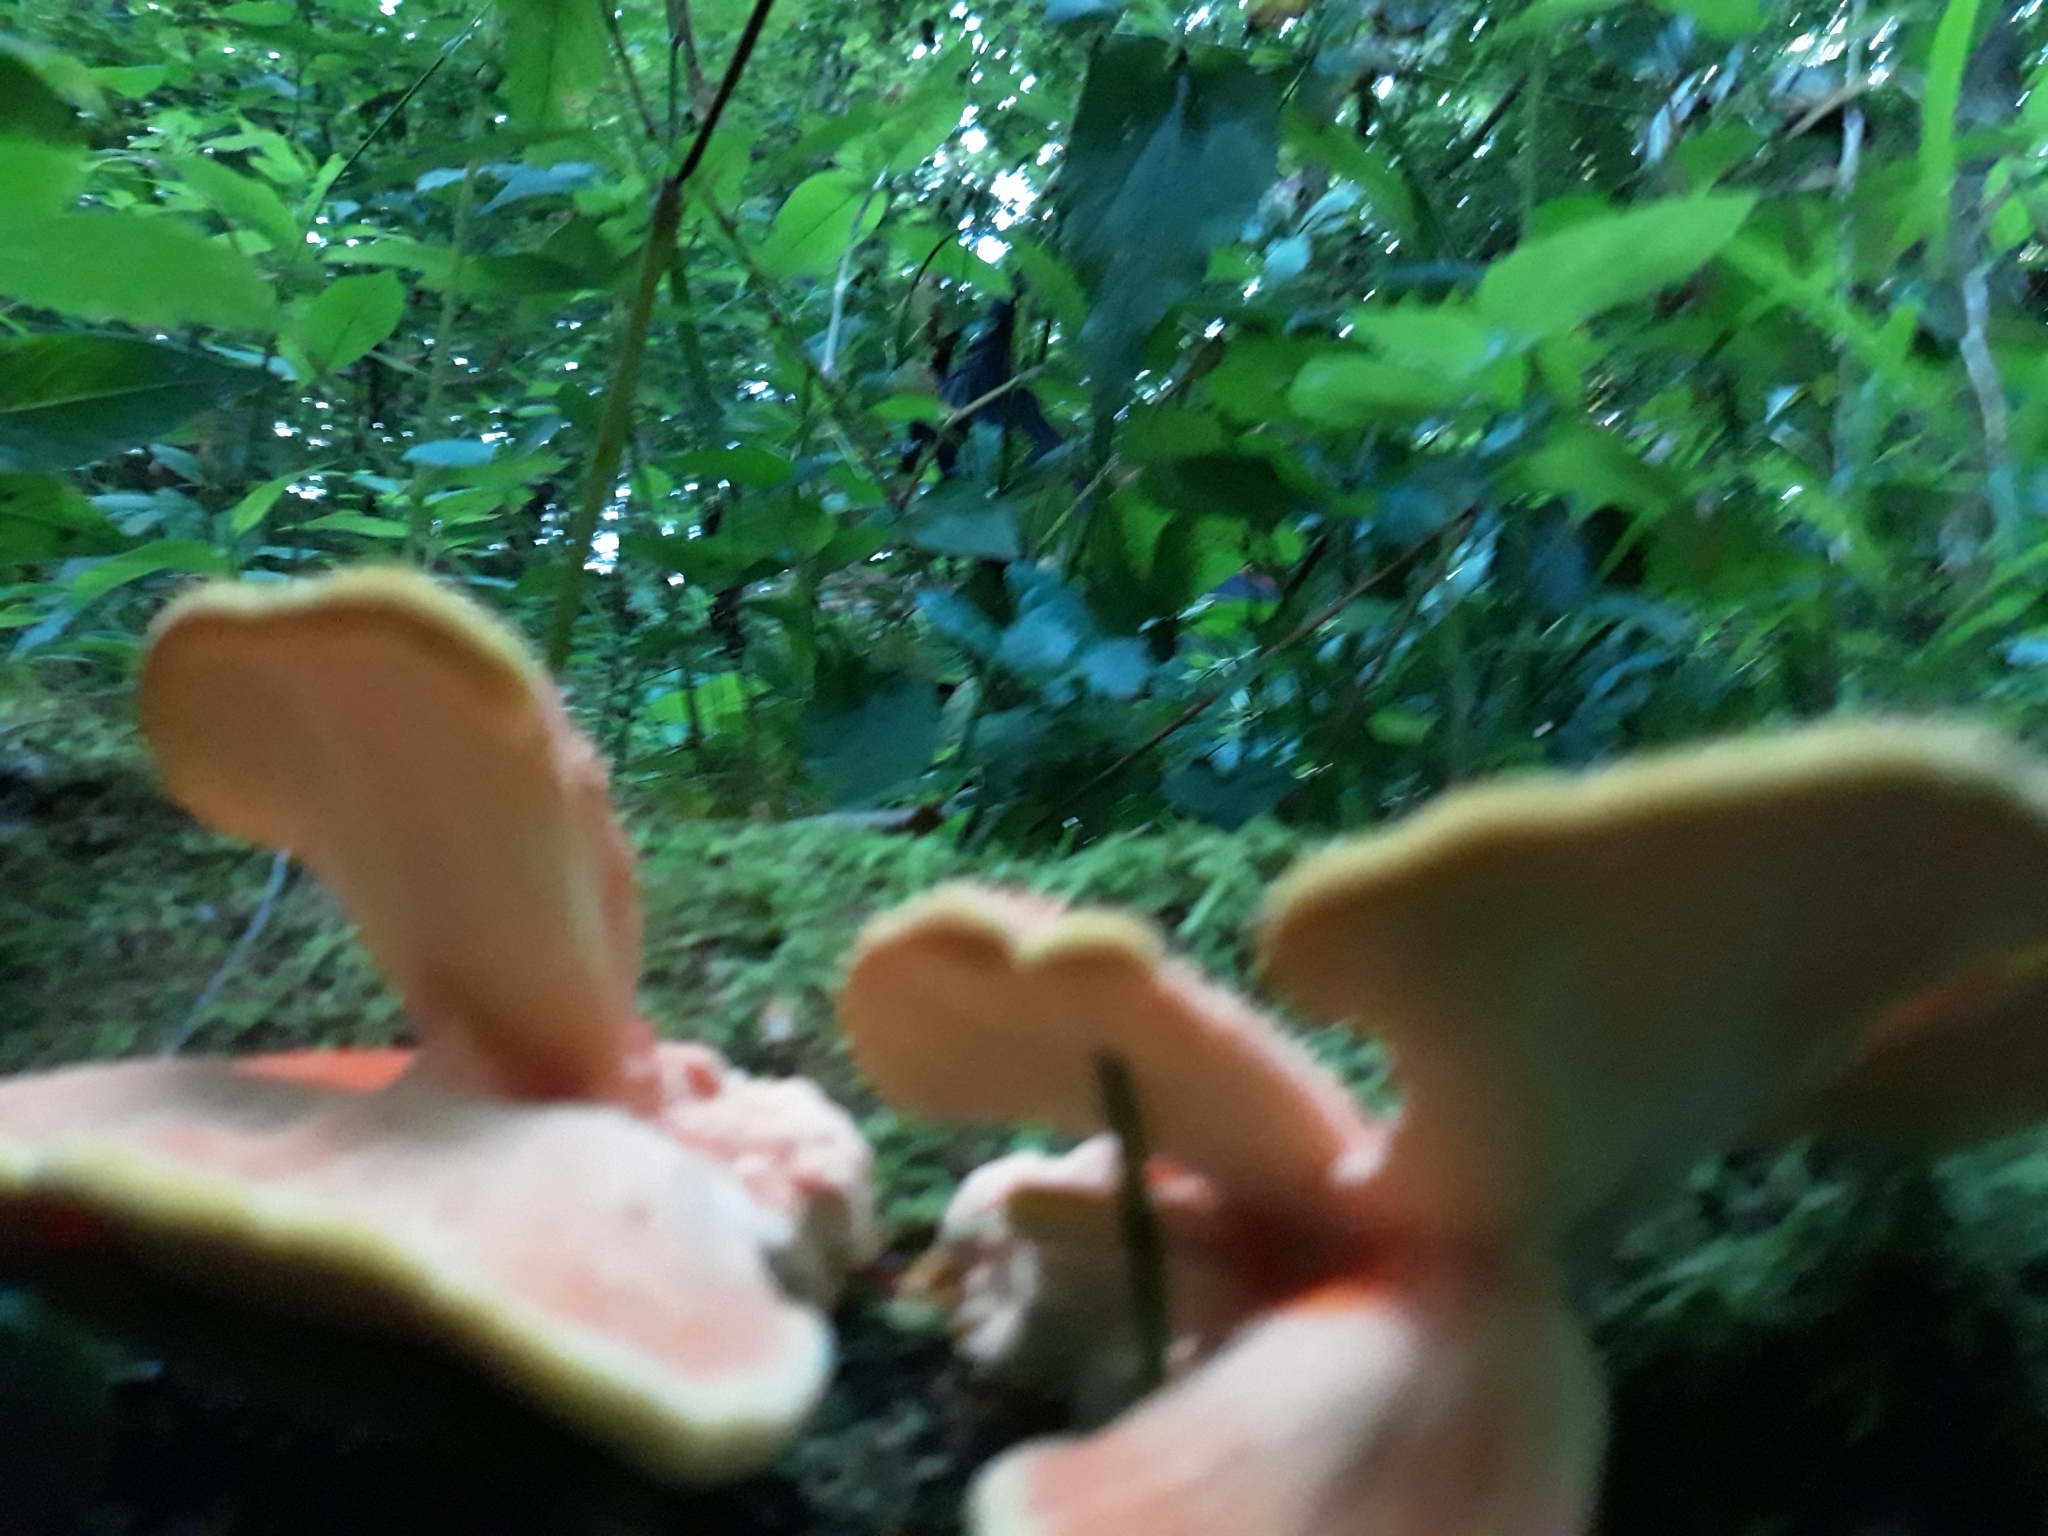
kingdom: Fungi
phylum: Basidiomycota
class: Agaricomycetes
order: Polyporales
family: Laetiporaceae
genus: Laetiporus
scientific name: Laetiporus sulphureus
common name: Chicken of the woods
